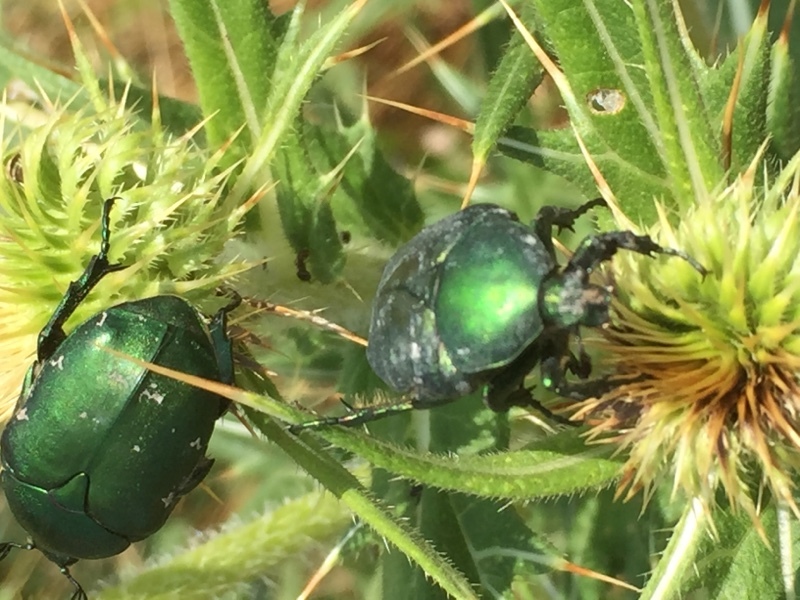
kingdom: Animalia
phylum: Arthropoda
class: Insecta
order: Coleoptera
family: Scarabaeidae
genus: Protaetia
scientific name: Protaetia ungarica
